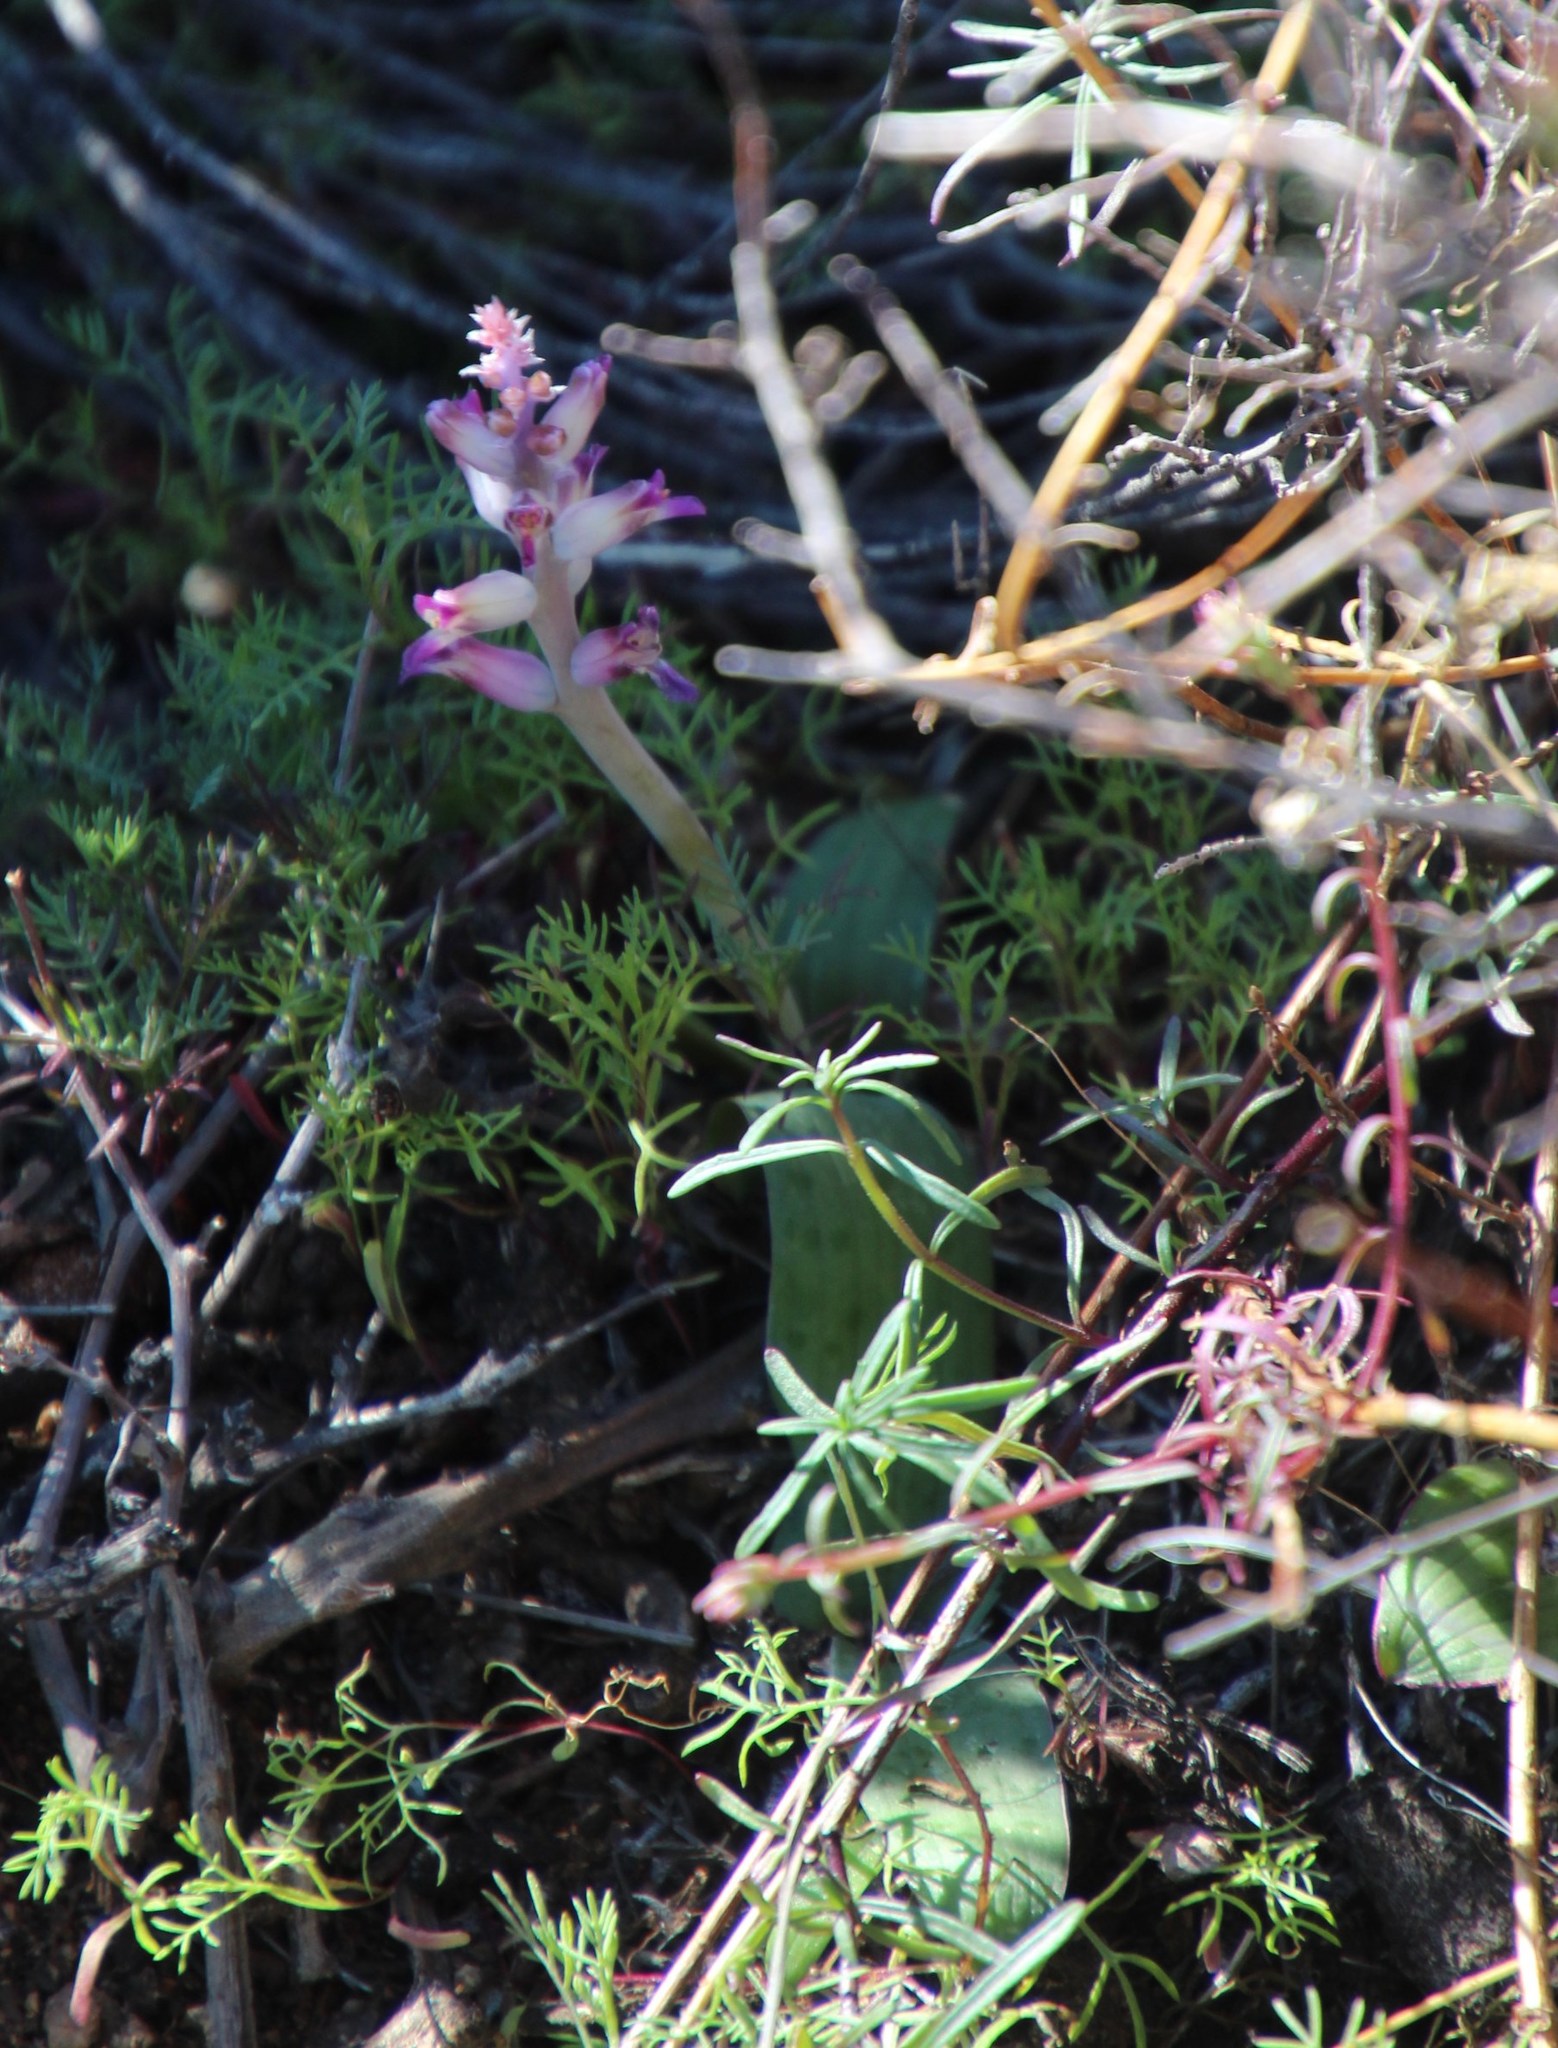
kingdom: Plantae
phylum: Tracheophyta
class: Liliopsida
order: Asparagales
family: Asparagaceae
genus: Lachenalia
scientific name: Lachenalia carnosa
